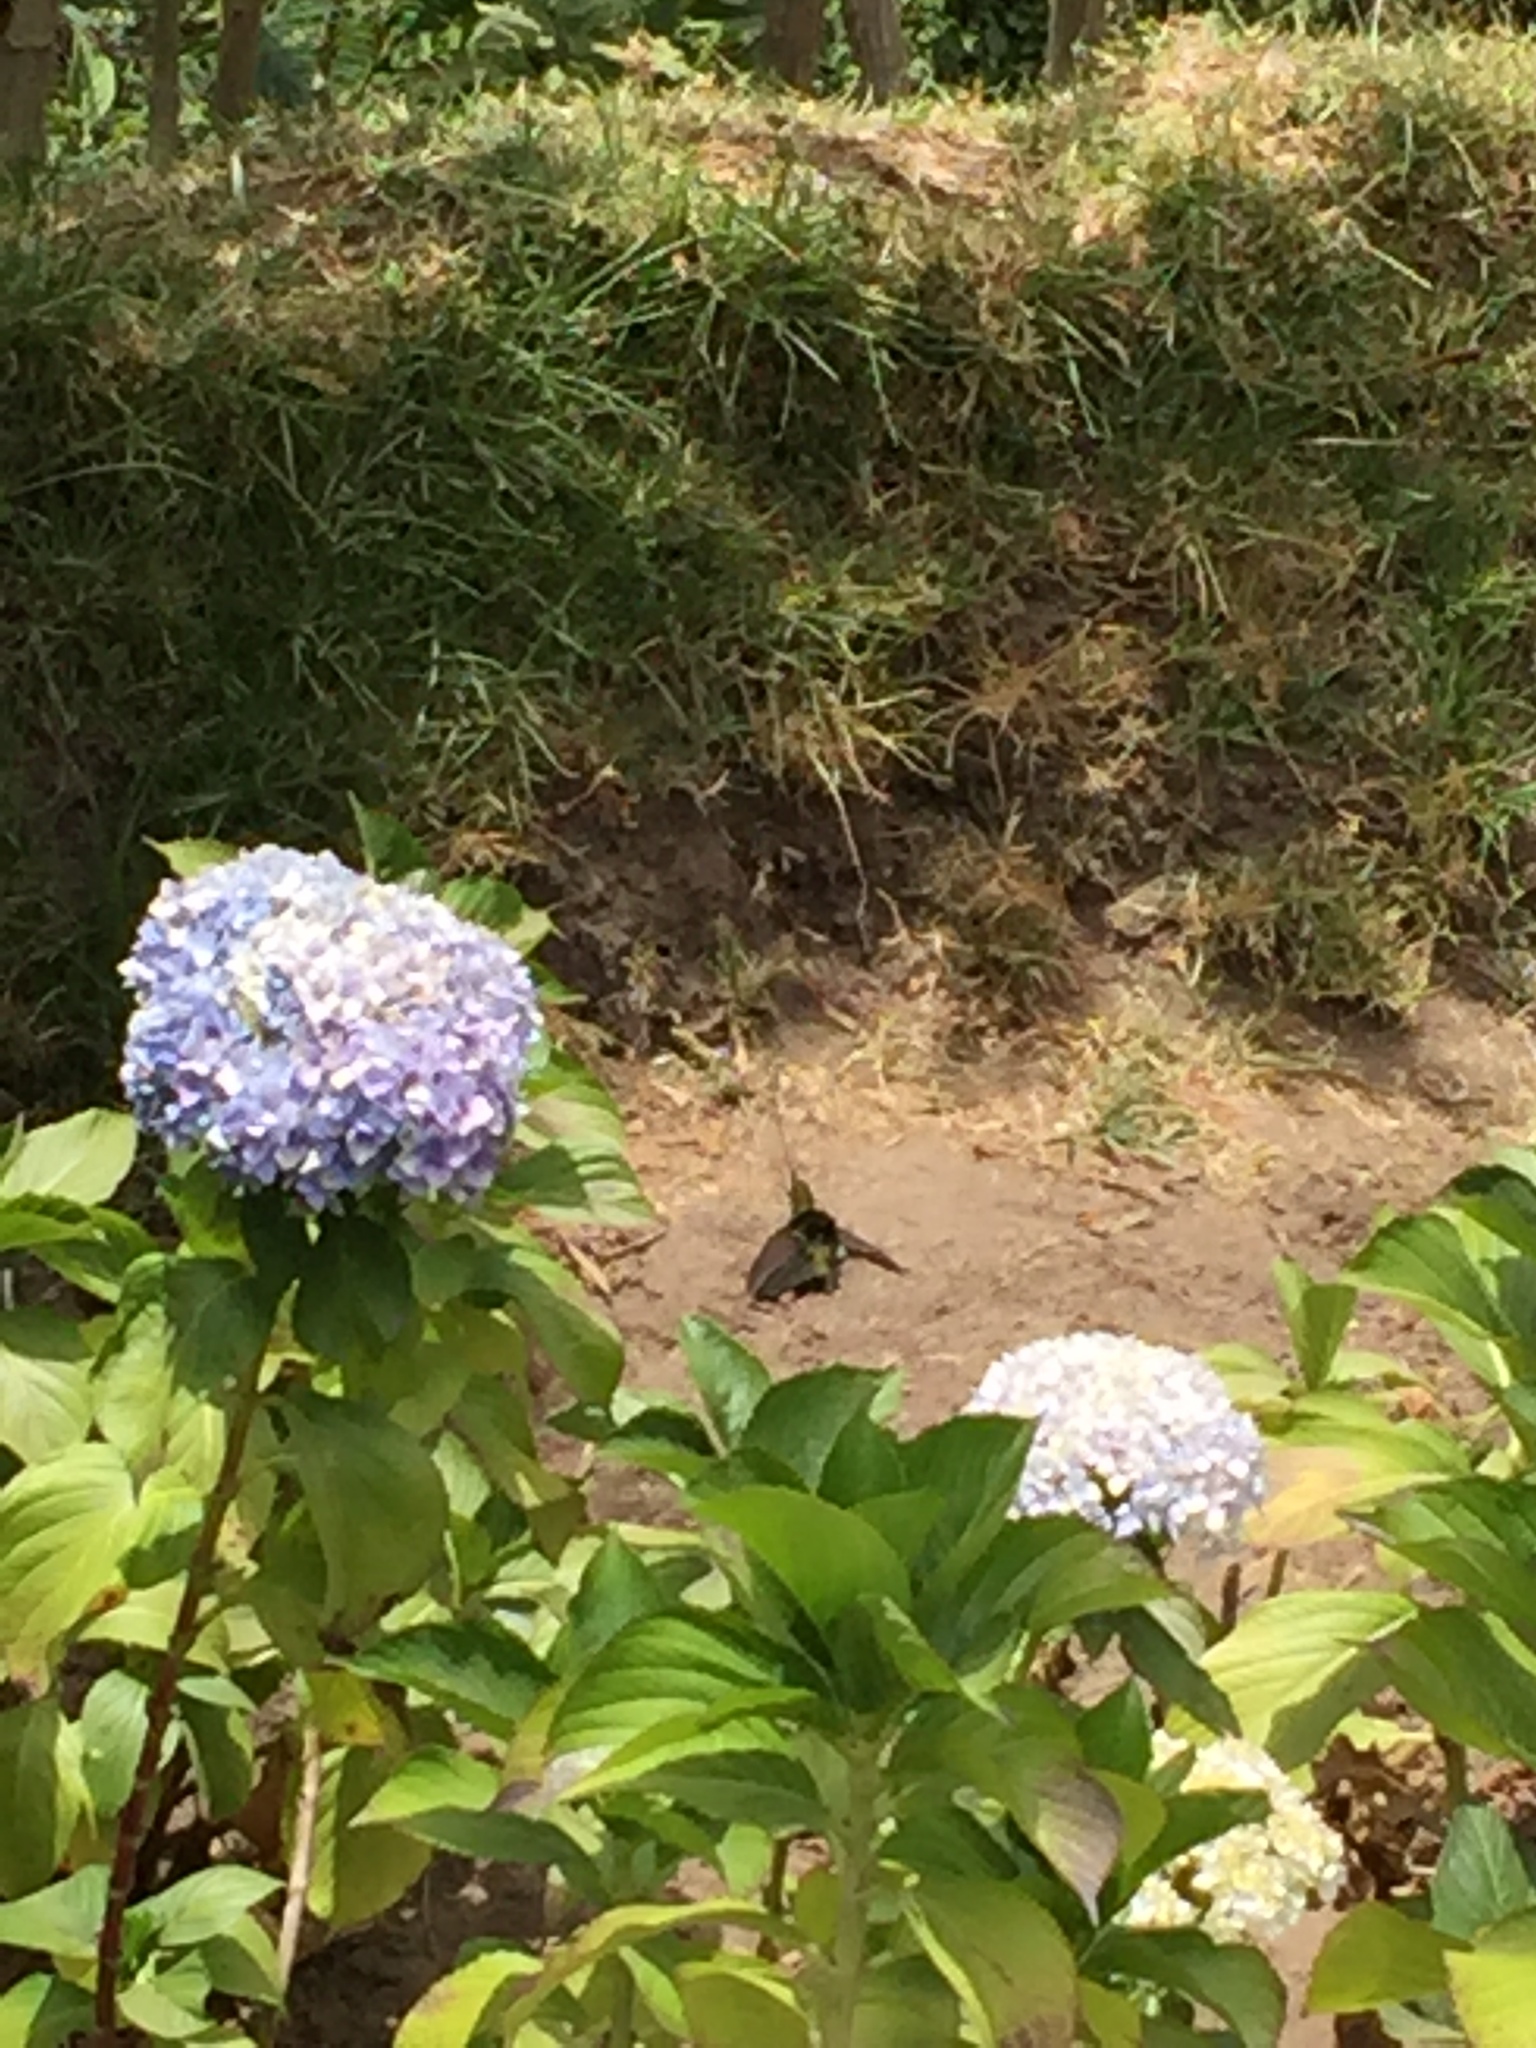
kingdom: Animalia
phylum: Chordata
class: Aves
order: Apodiformes
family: Trochilidae
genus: Ensifera
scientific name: Ensifera ensifera
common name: Sword-billed hummingbird
